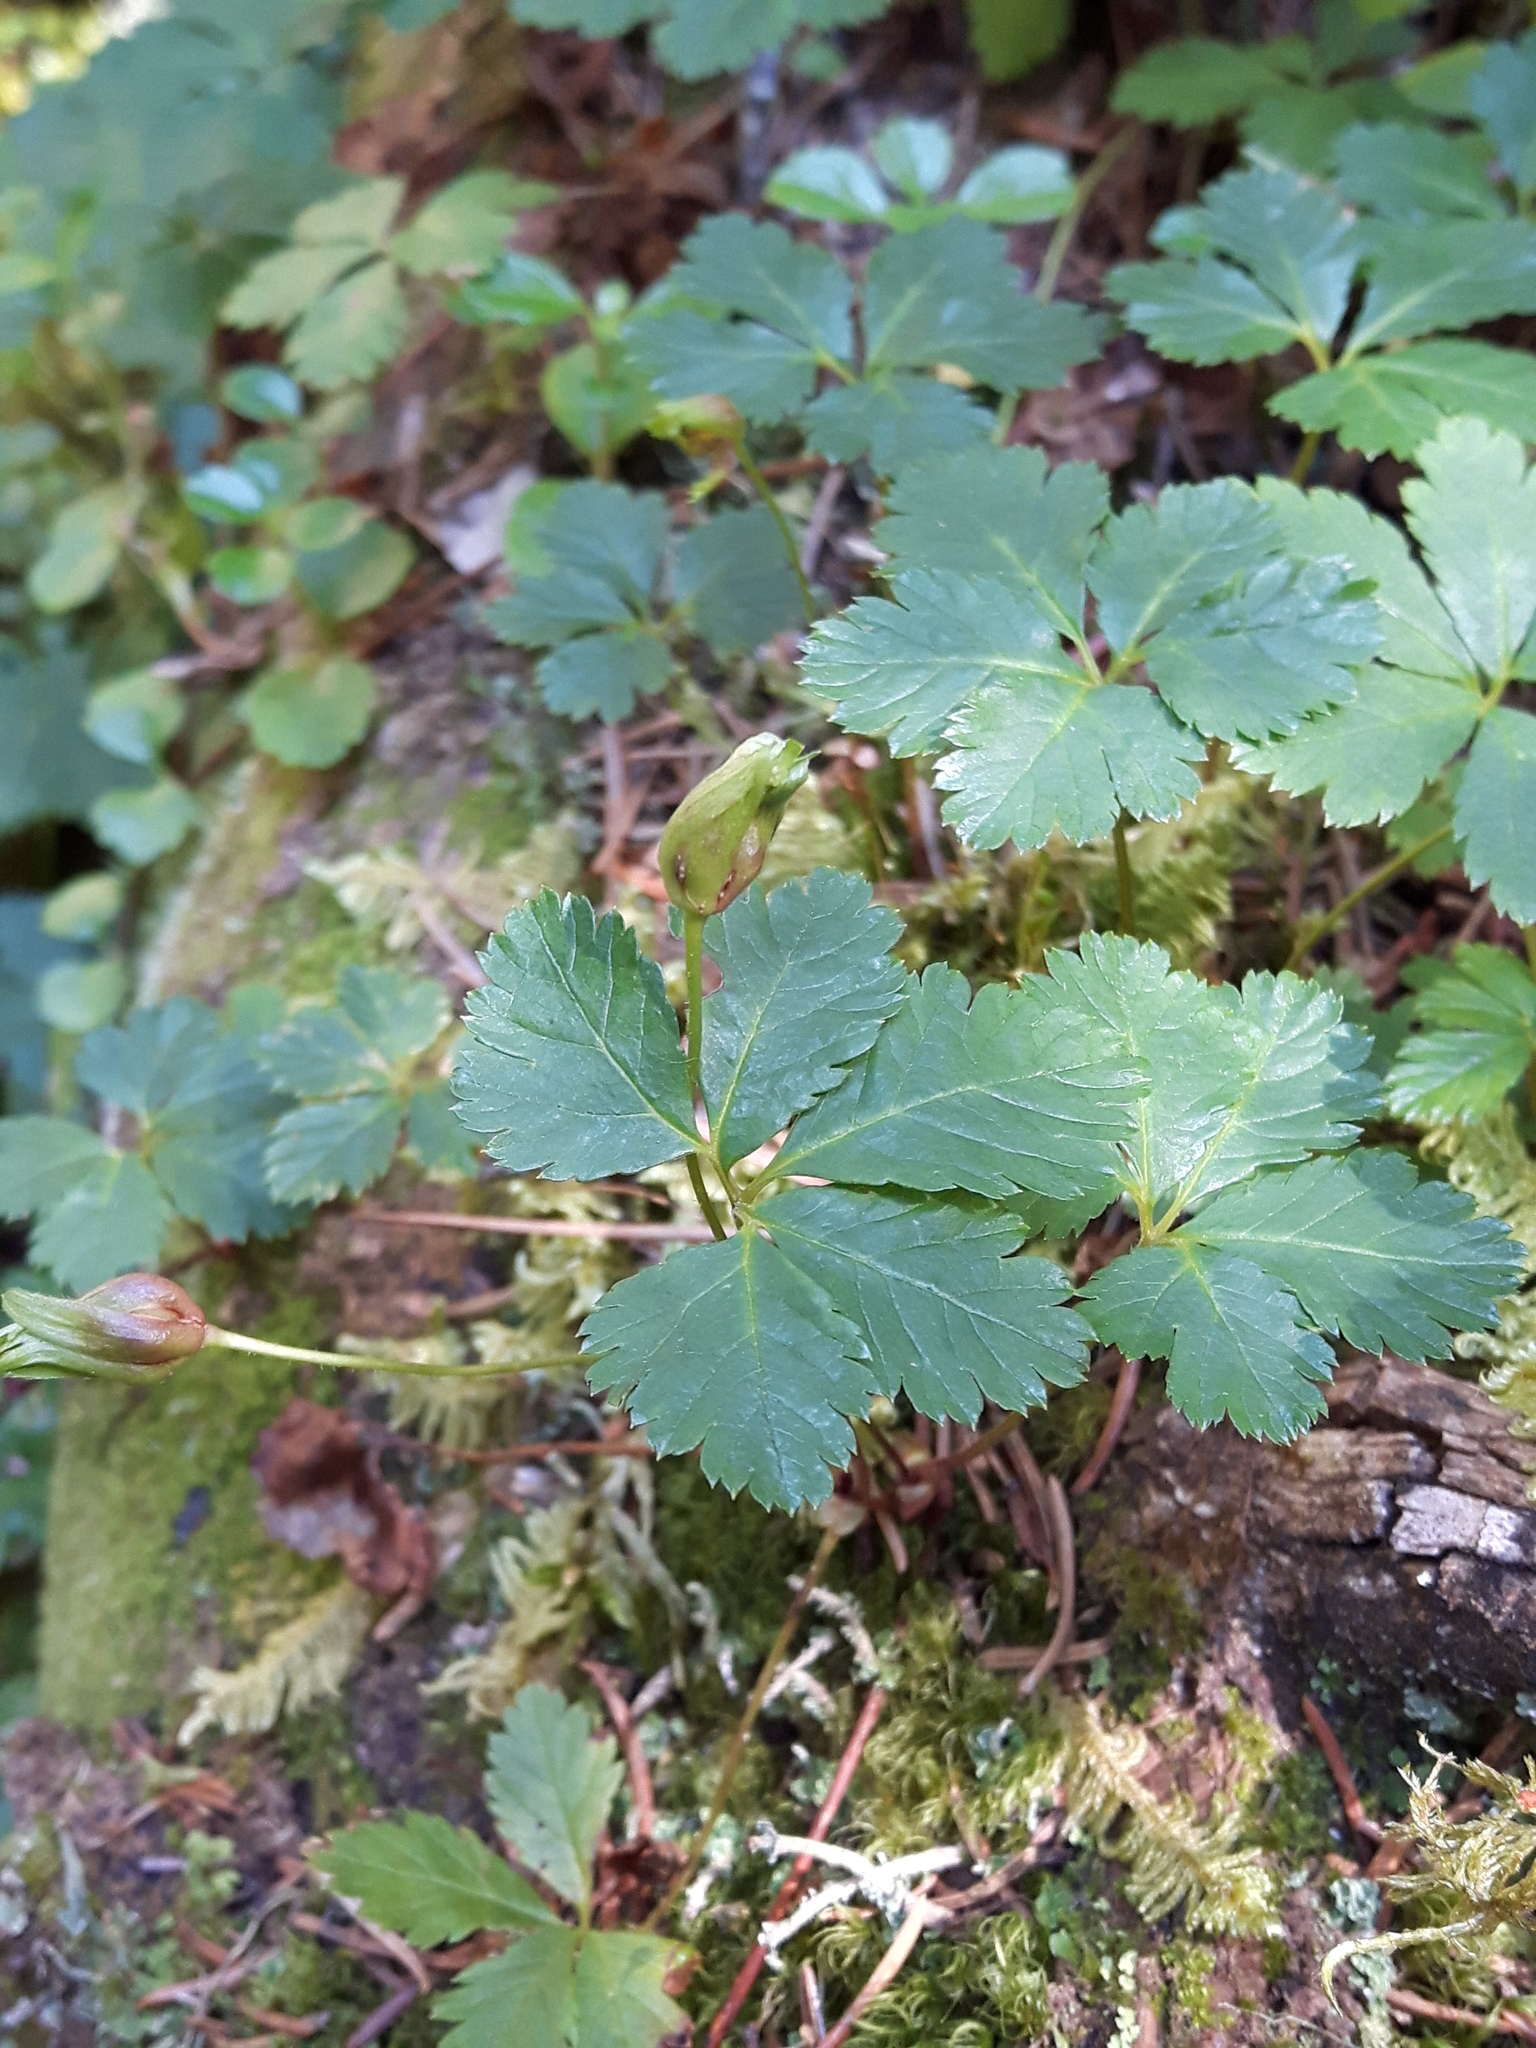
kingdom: Plantae
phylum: Tracheophyta
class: Magnoliopsida
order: Rosales
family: Rosaceae
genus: Rubus
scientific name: Rubus pedatus
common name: Creeping raspberry
